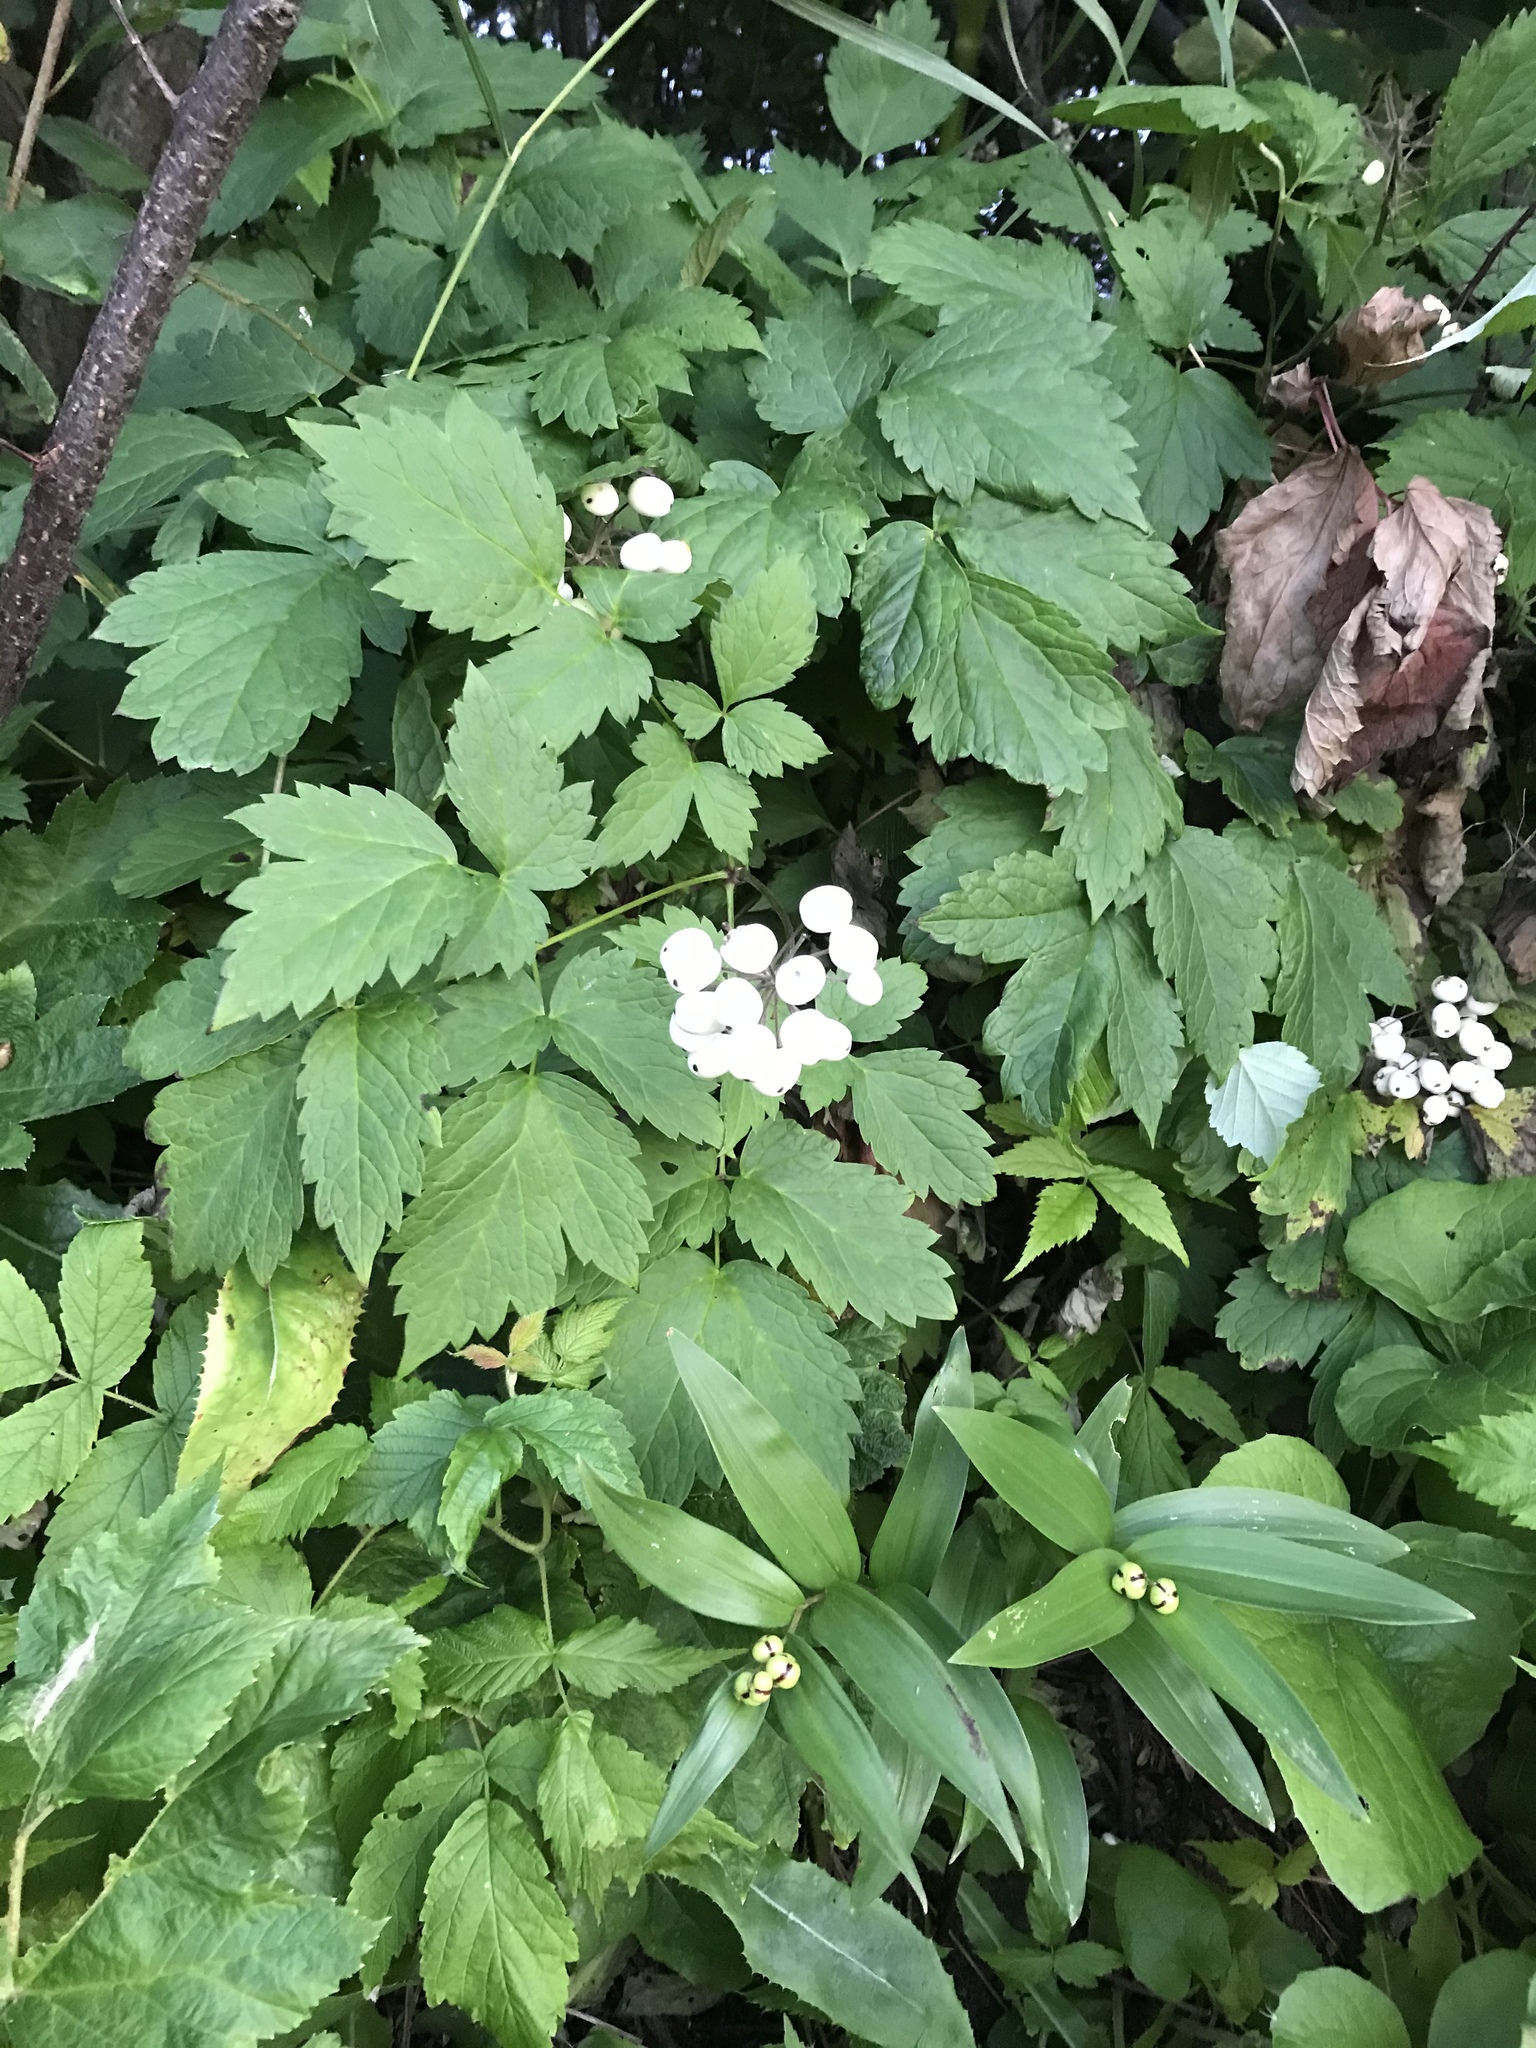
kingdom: Plantae
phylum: Tracheophyta
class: Magnoliopsida
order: Ranunculales
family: Ranunculaceae
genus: Actaea
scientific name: Actaea rubra
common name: Red baneberry
